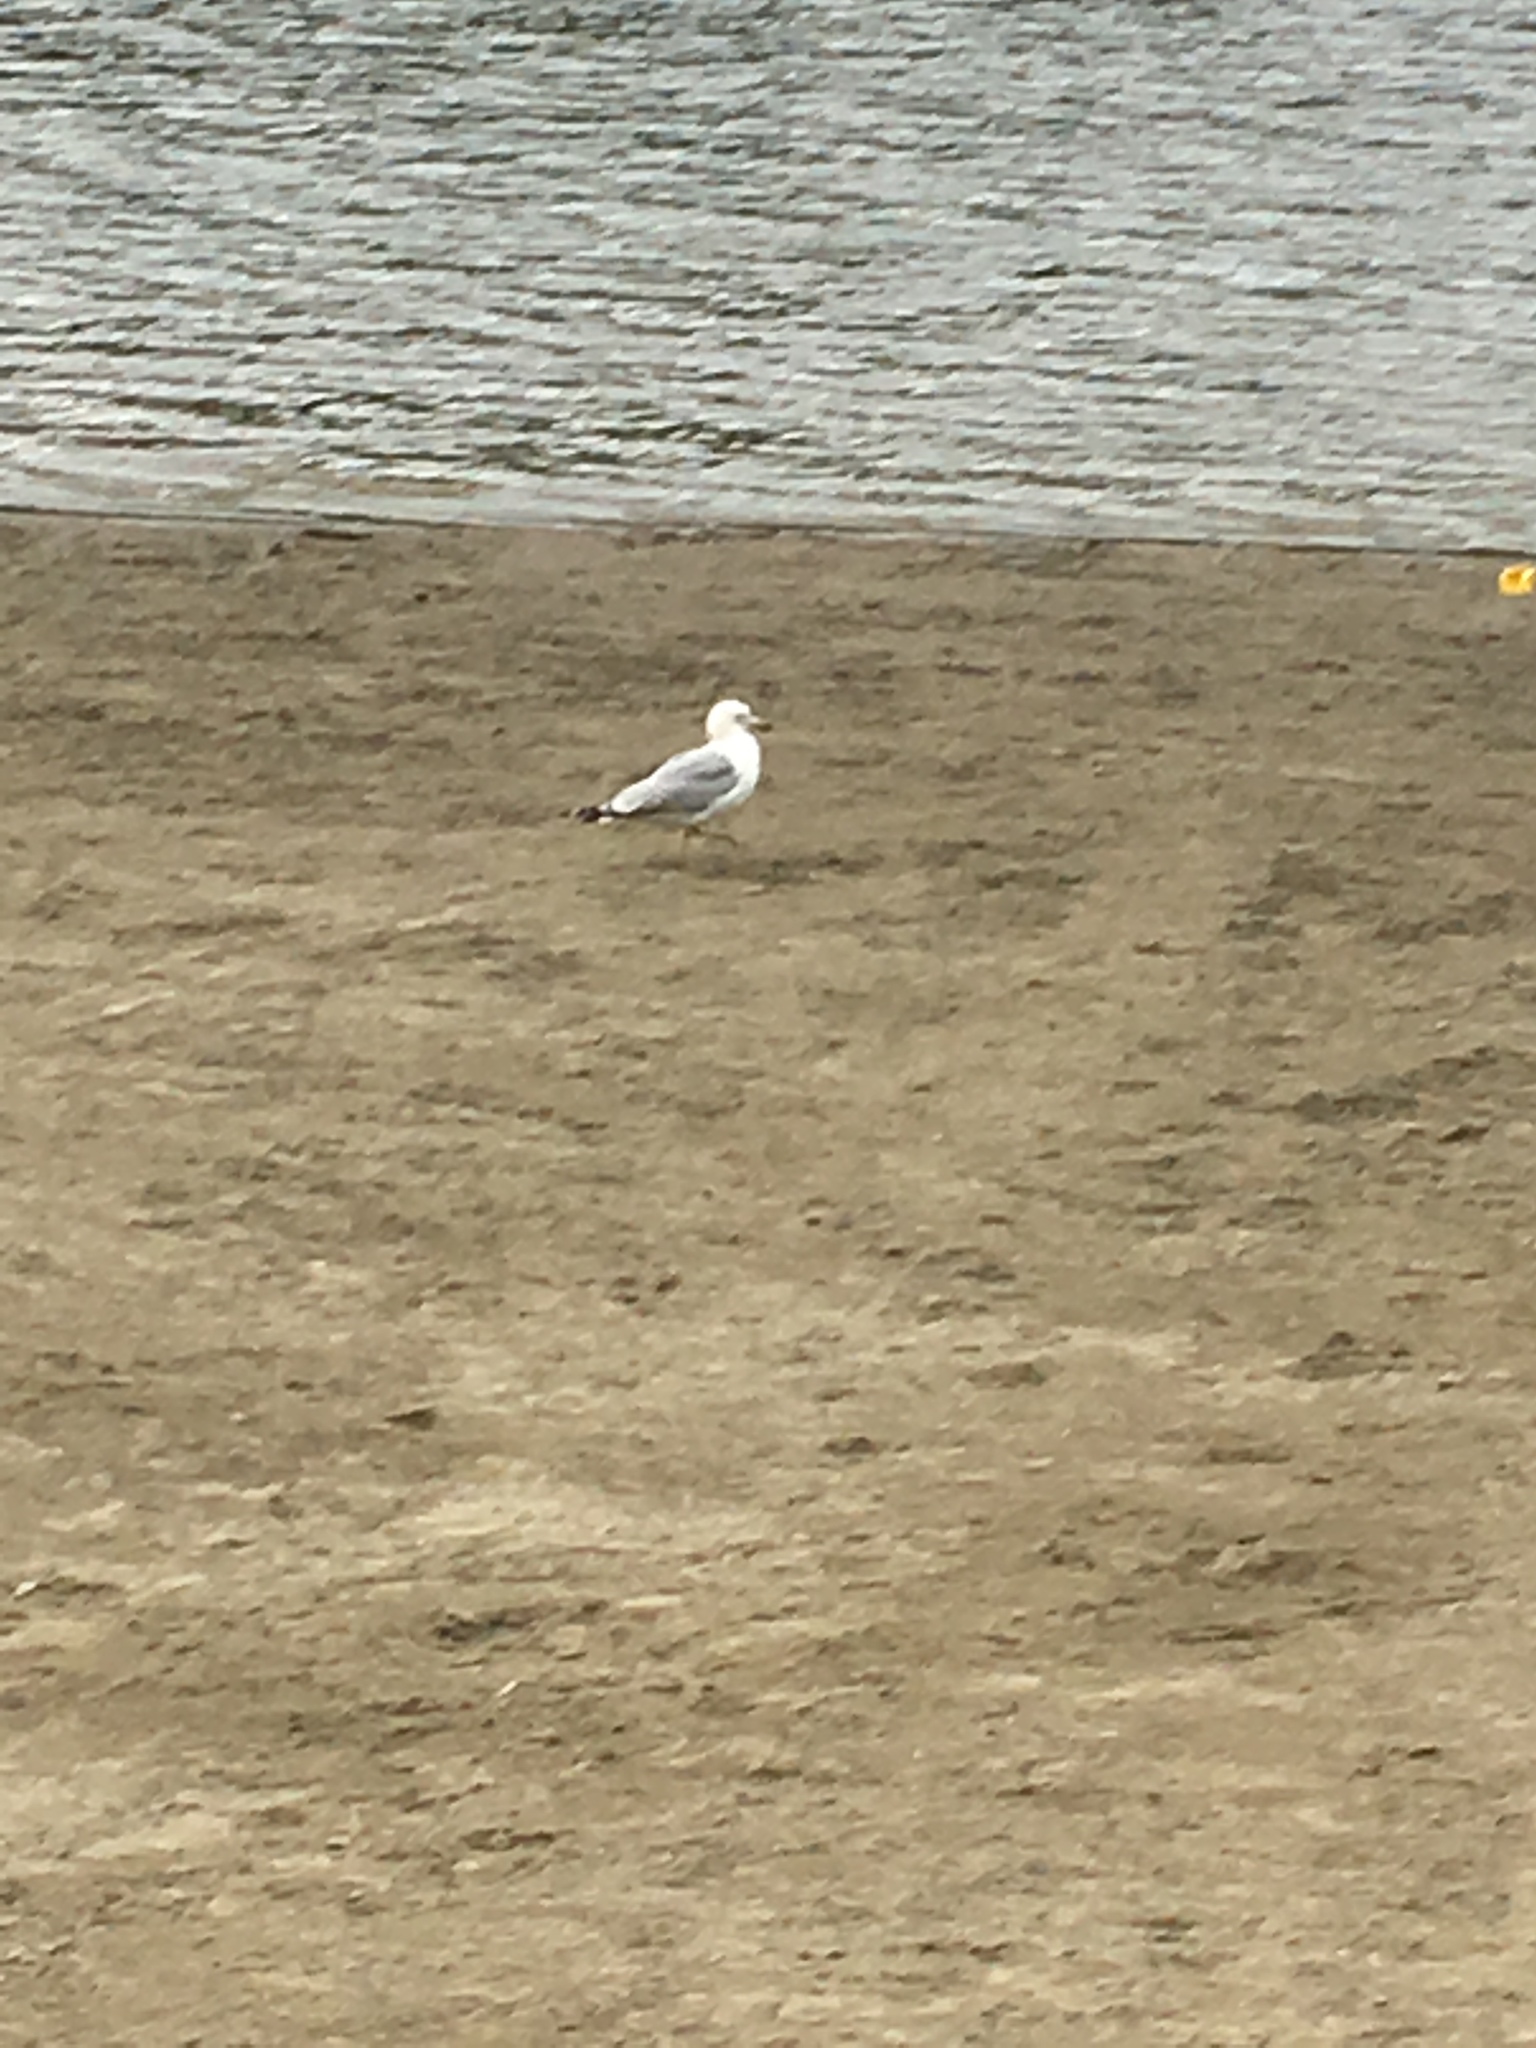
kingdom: Animalia
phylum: Chordata
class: Aves
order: Charadriiformes
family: Laridae
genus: Larus
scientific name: Larus delawarensis
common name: Ring-billed gull
